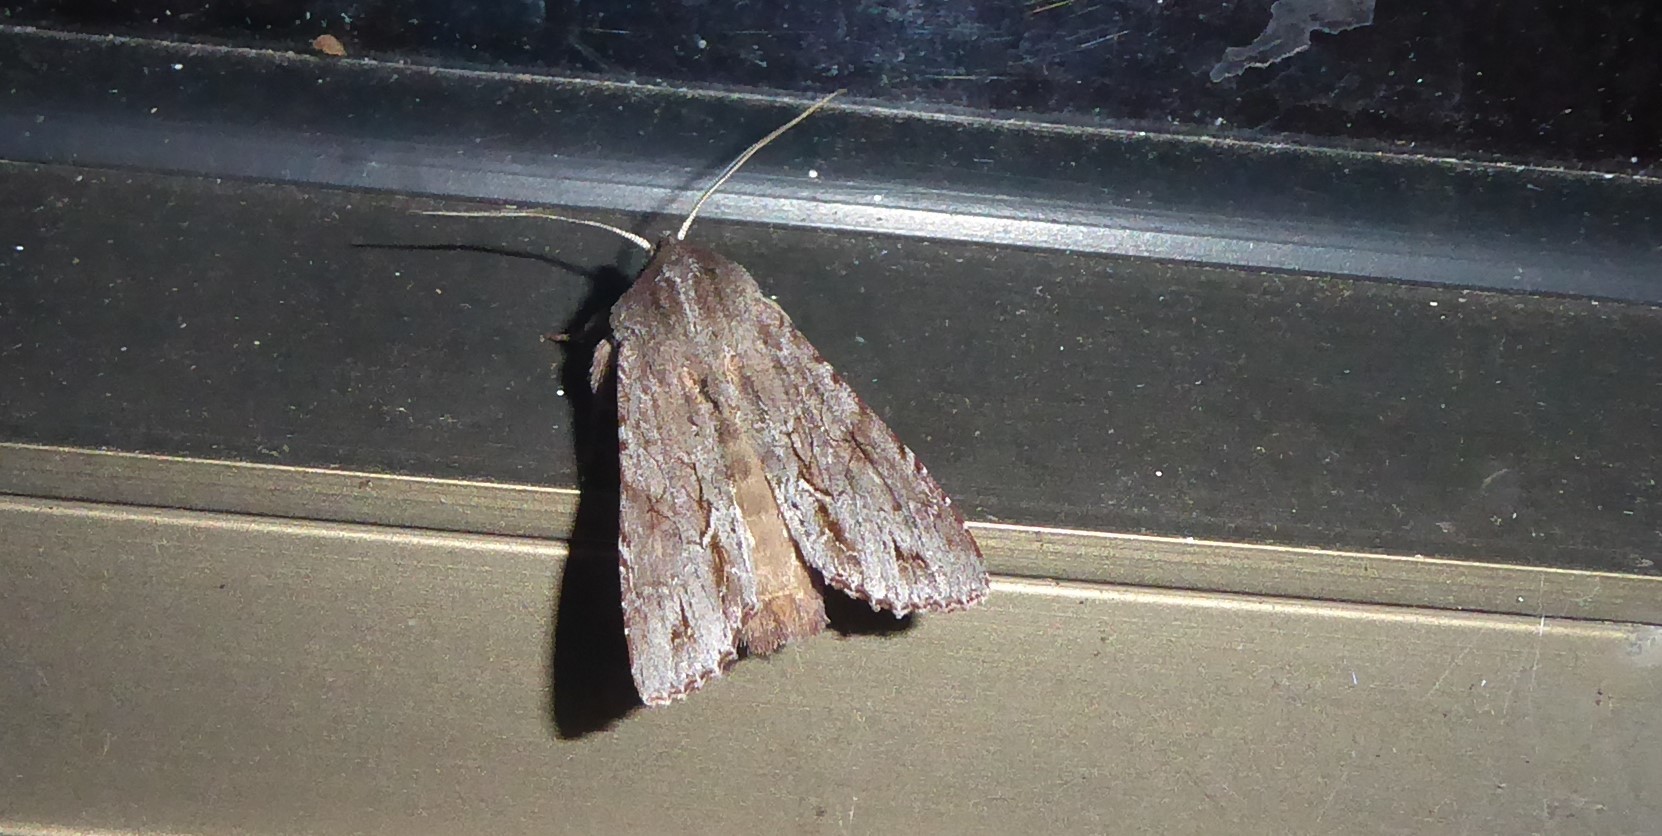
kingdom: Animalia
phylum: Arthropoda
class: Insecta
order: Lepidoptera
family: Noctuidae
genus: Ichneutica
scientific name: Ichneutica
